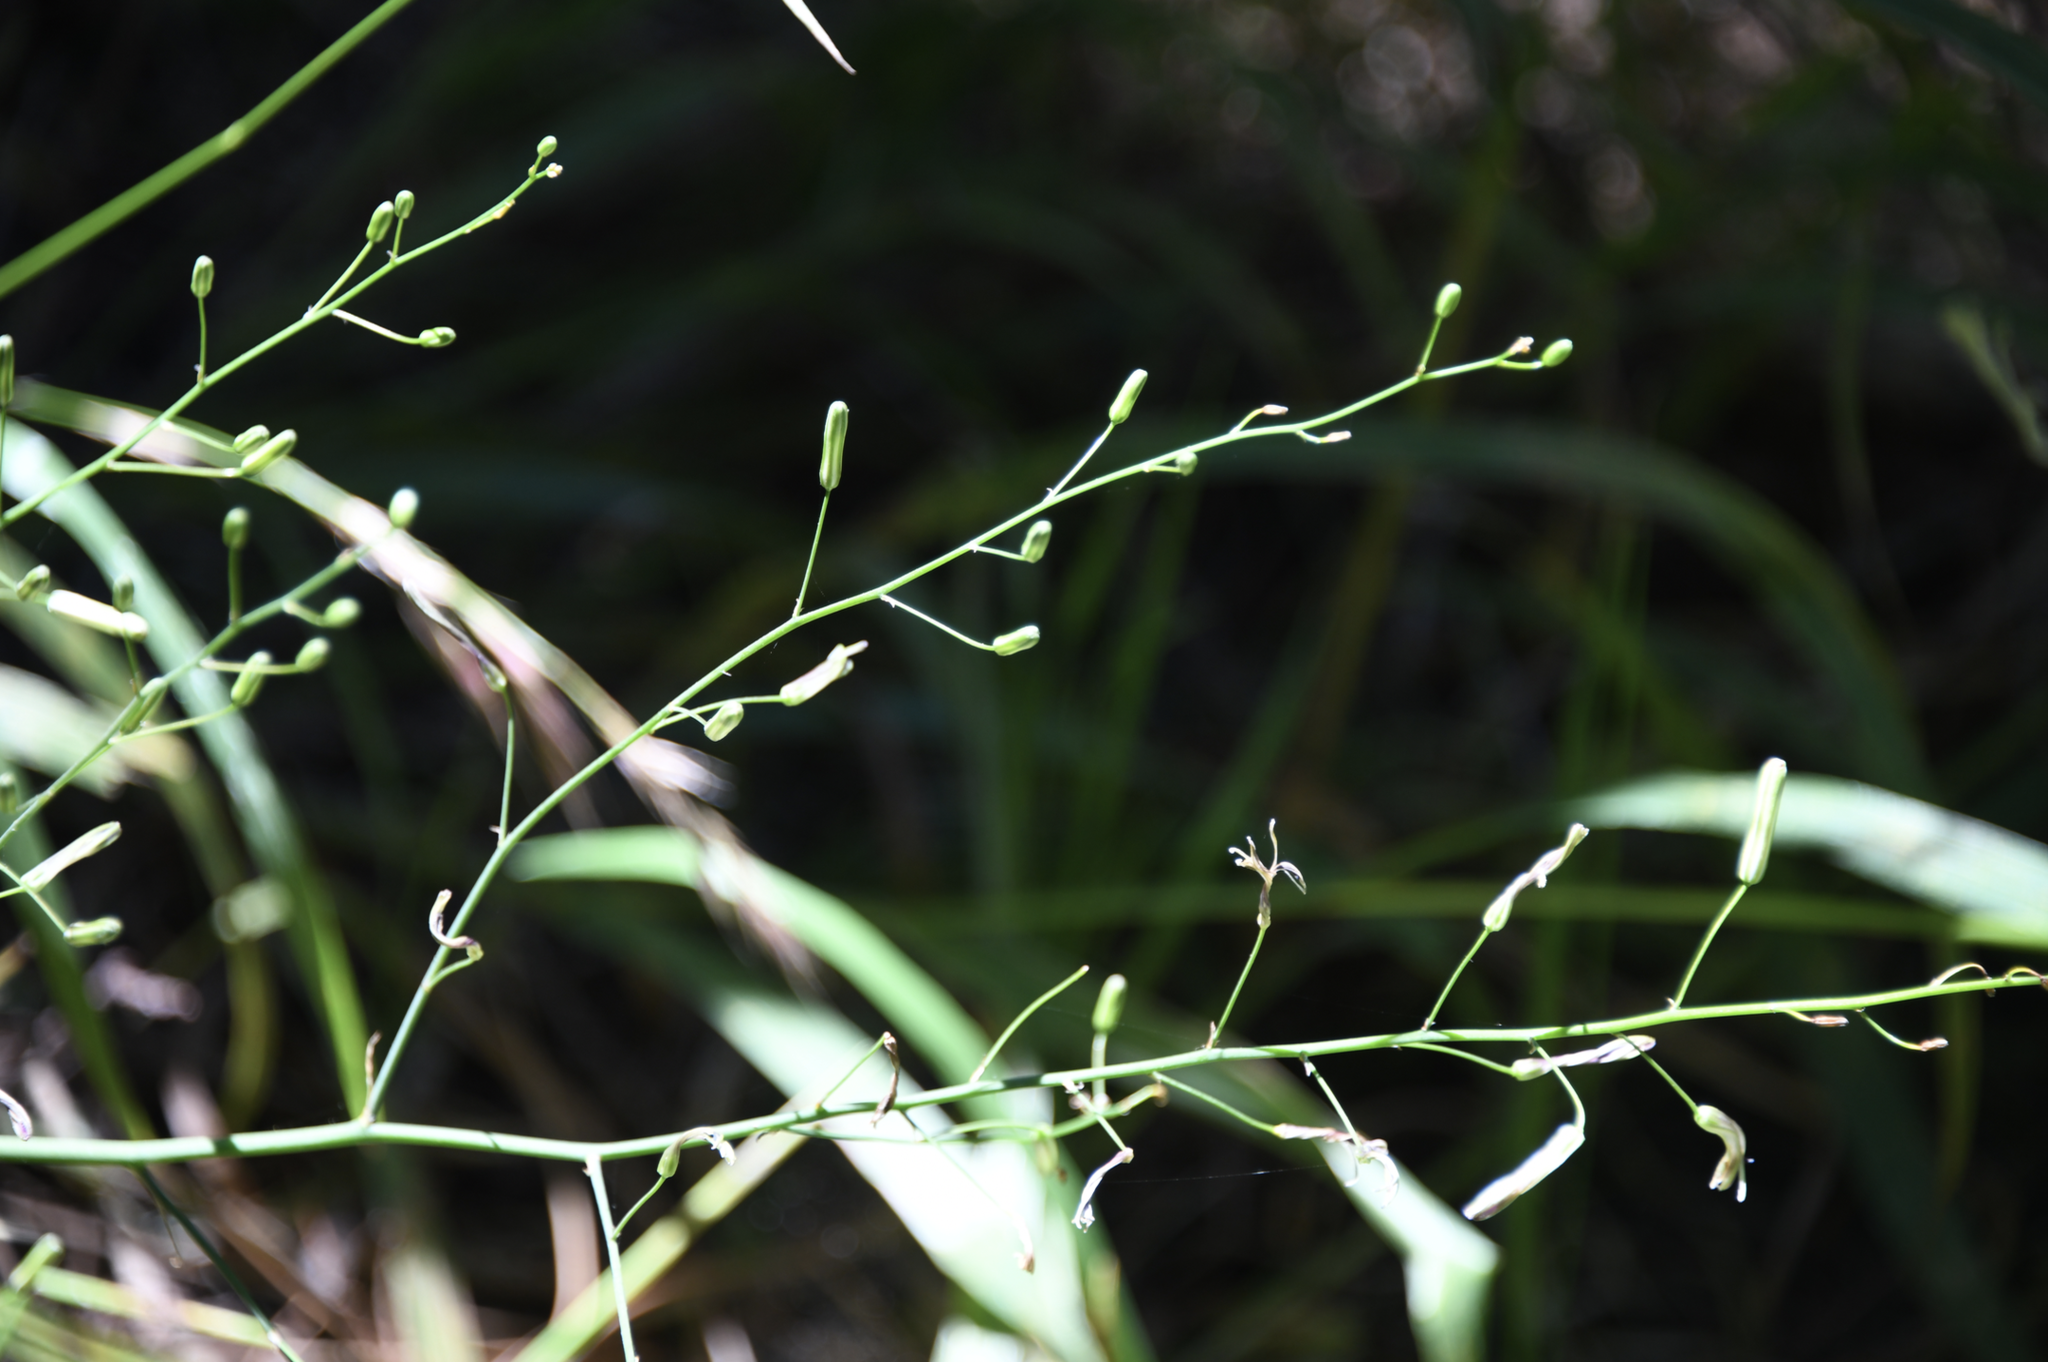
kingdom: Plantae
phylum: Tracheophyta
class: Liliopsida
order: Asparagales
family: Asparagaceae
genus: Chlorogalum
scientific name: Chlorogalum pomeridianum
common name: Amole
